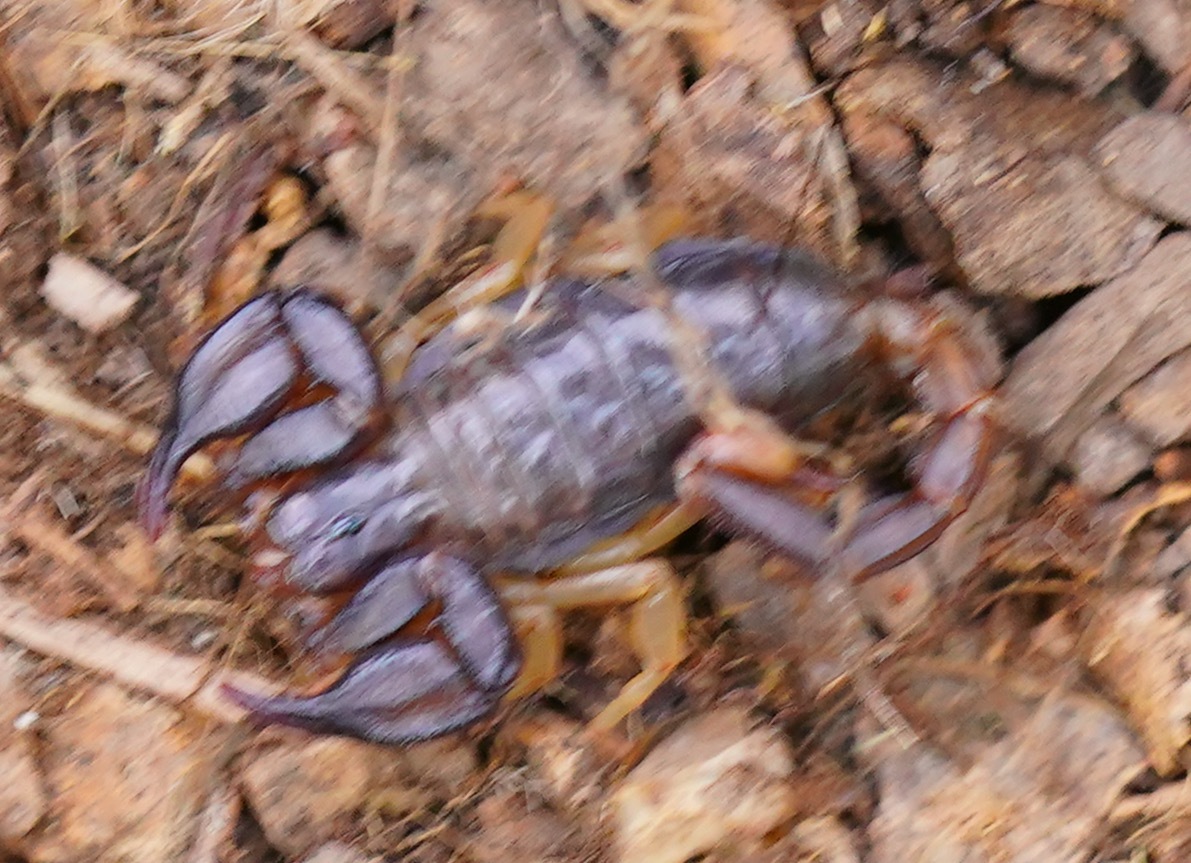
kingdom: Animalia
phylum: Arthropoda
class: Arachnida
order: Scorpiones
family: Chactidae
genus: Uroctonus
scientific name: Uroctonus mordax
